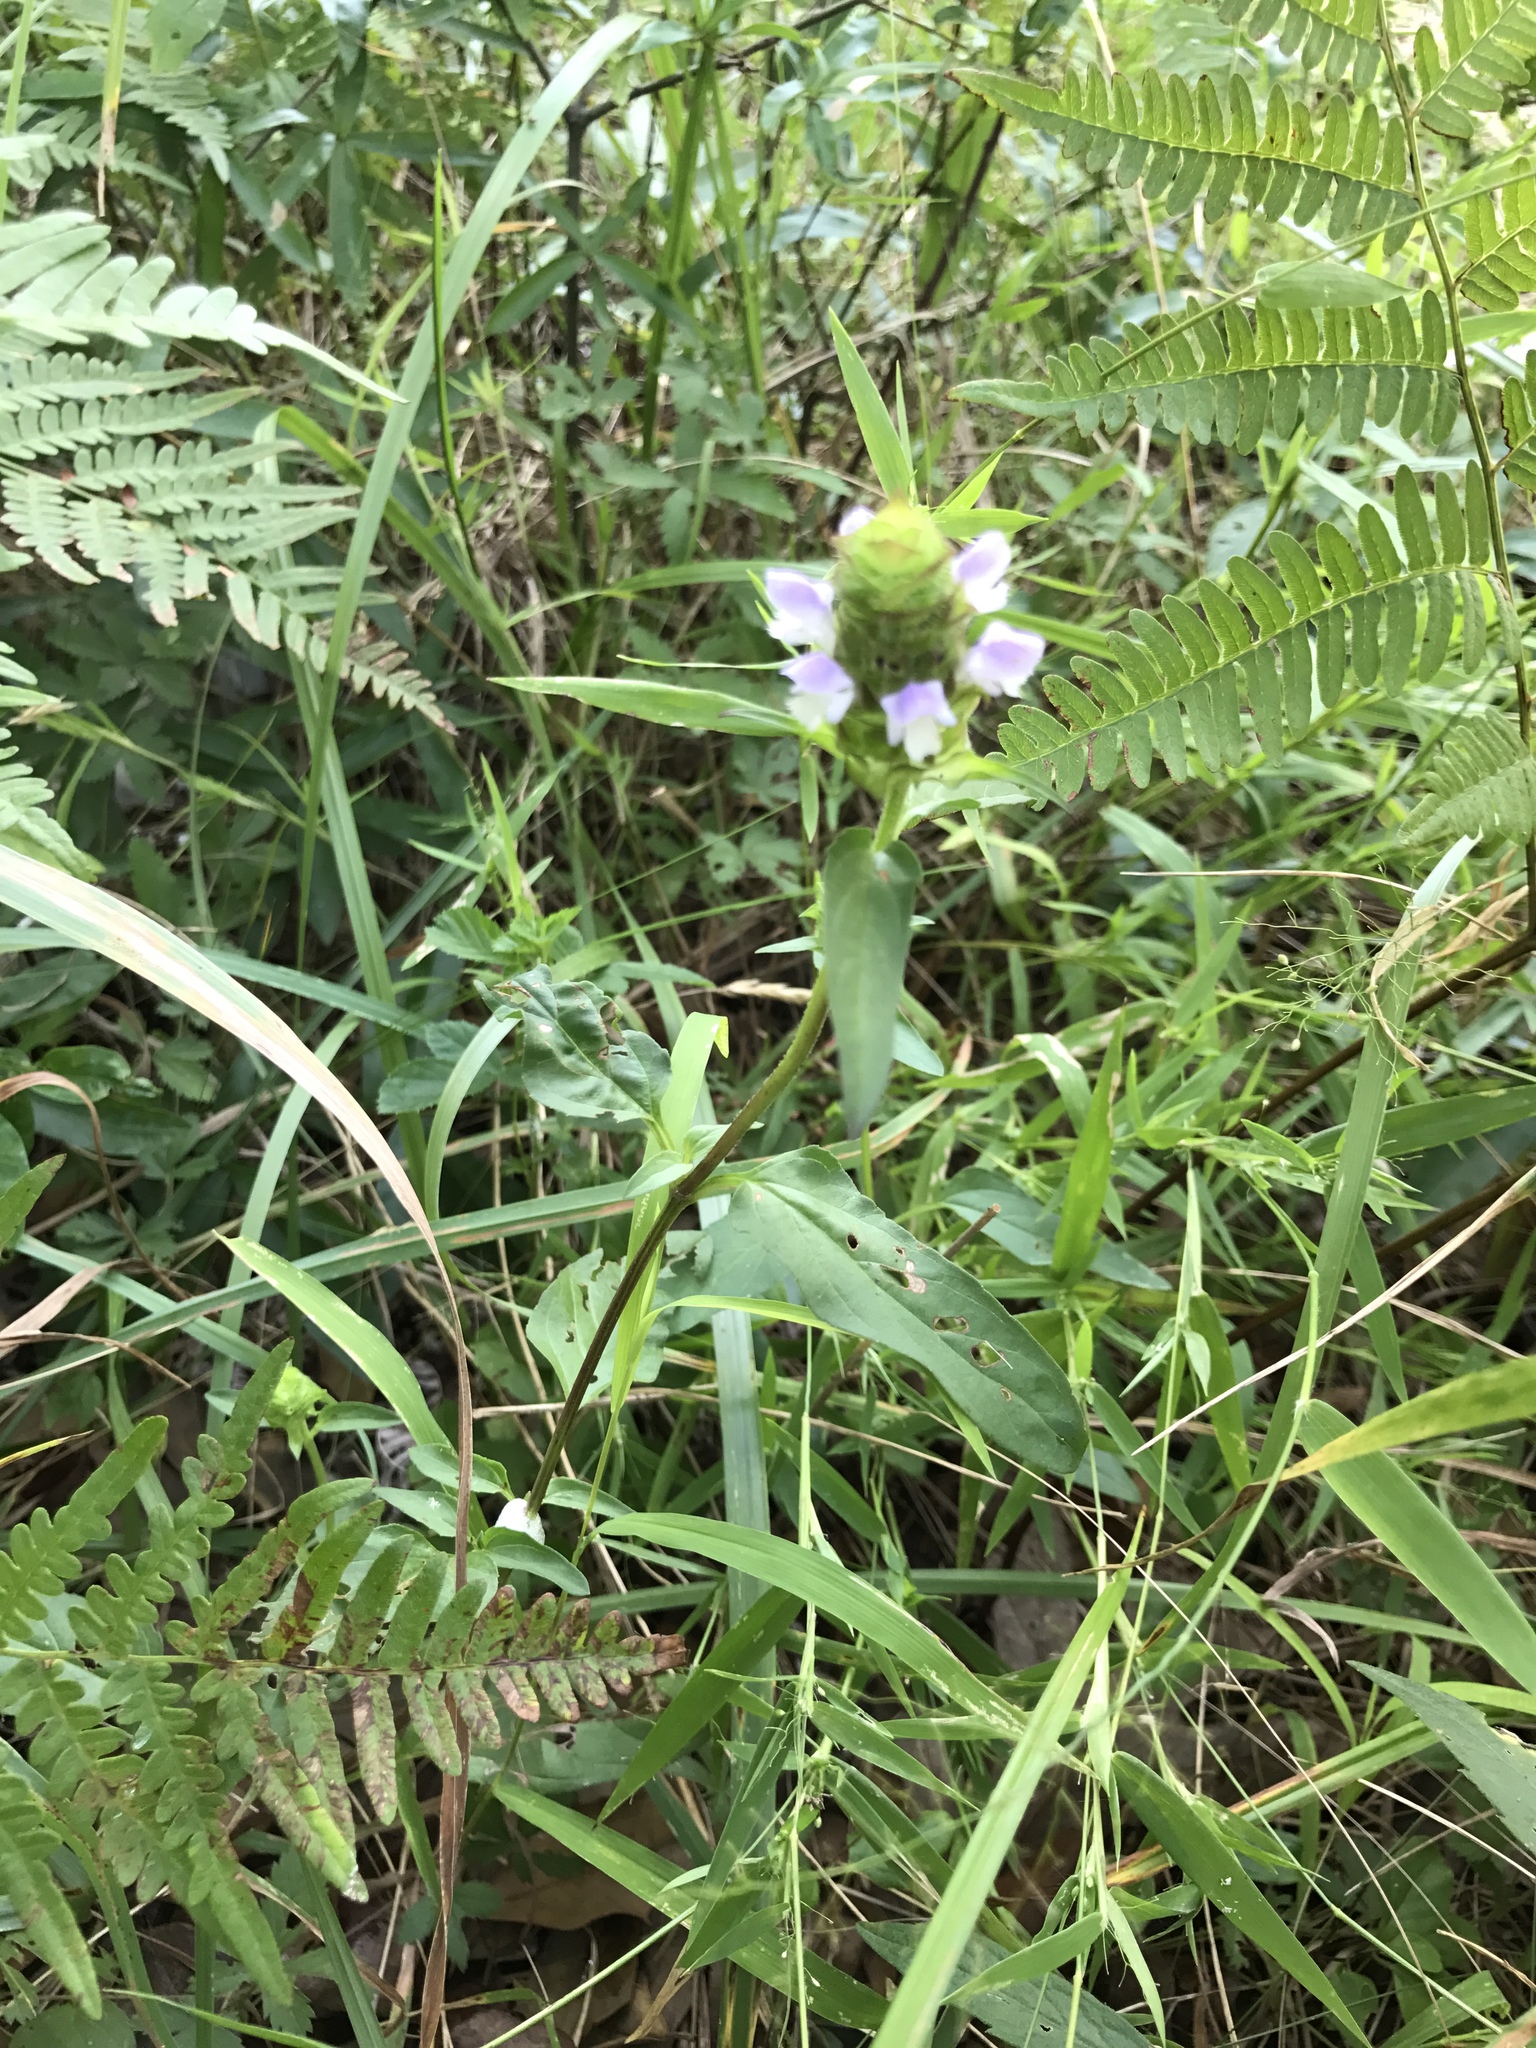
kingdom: Plantae
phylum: Tracheophyta
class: Magnoliopsida
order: Lamiales
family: Lamiaceae
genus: Prunella
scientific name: Prunella vulgaris
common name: Heal-all
